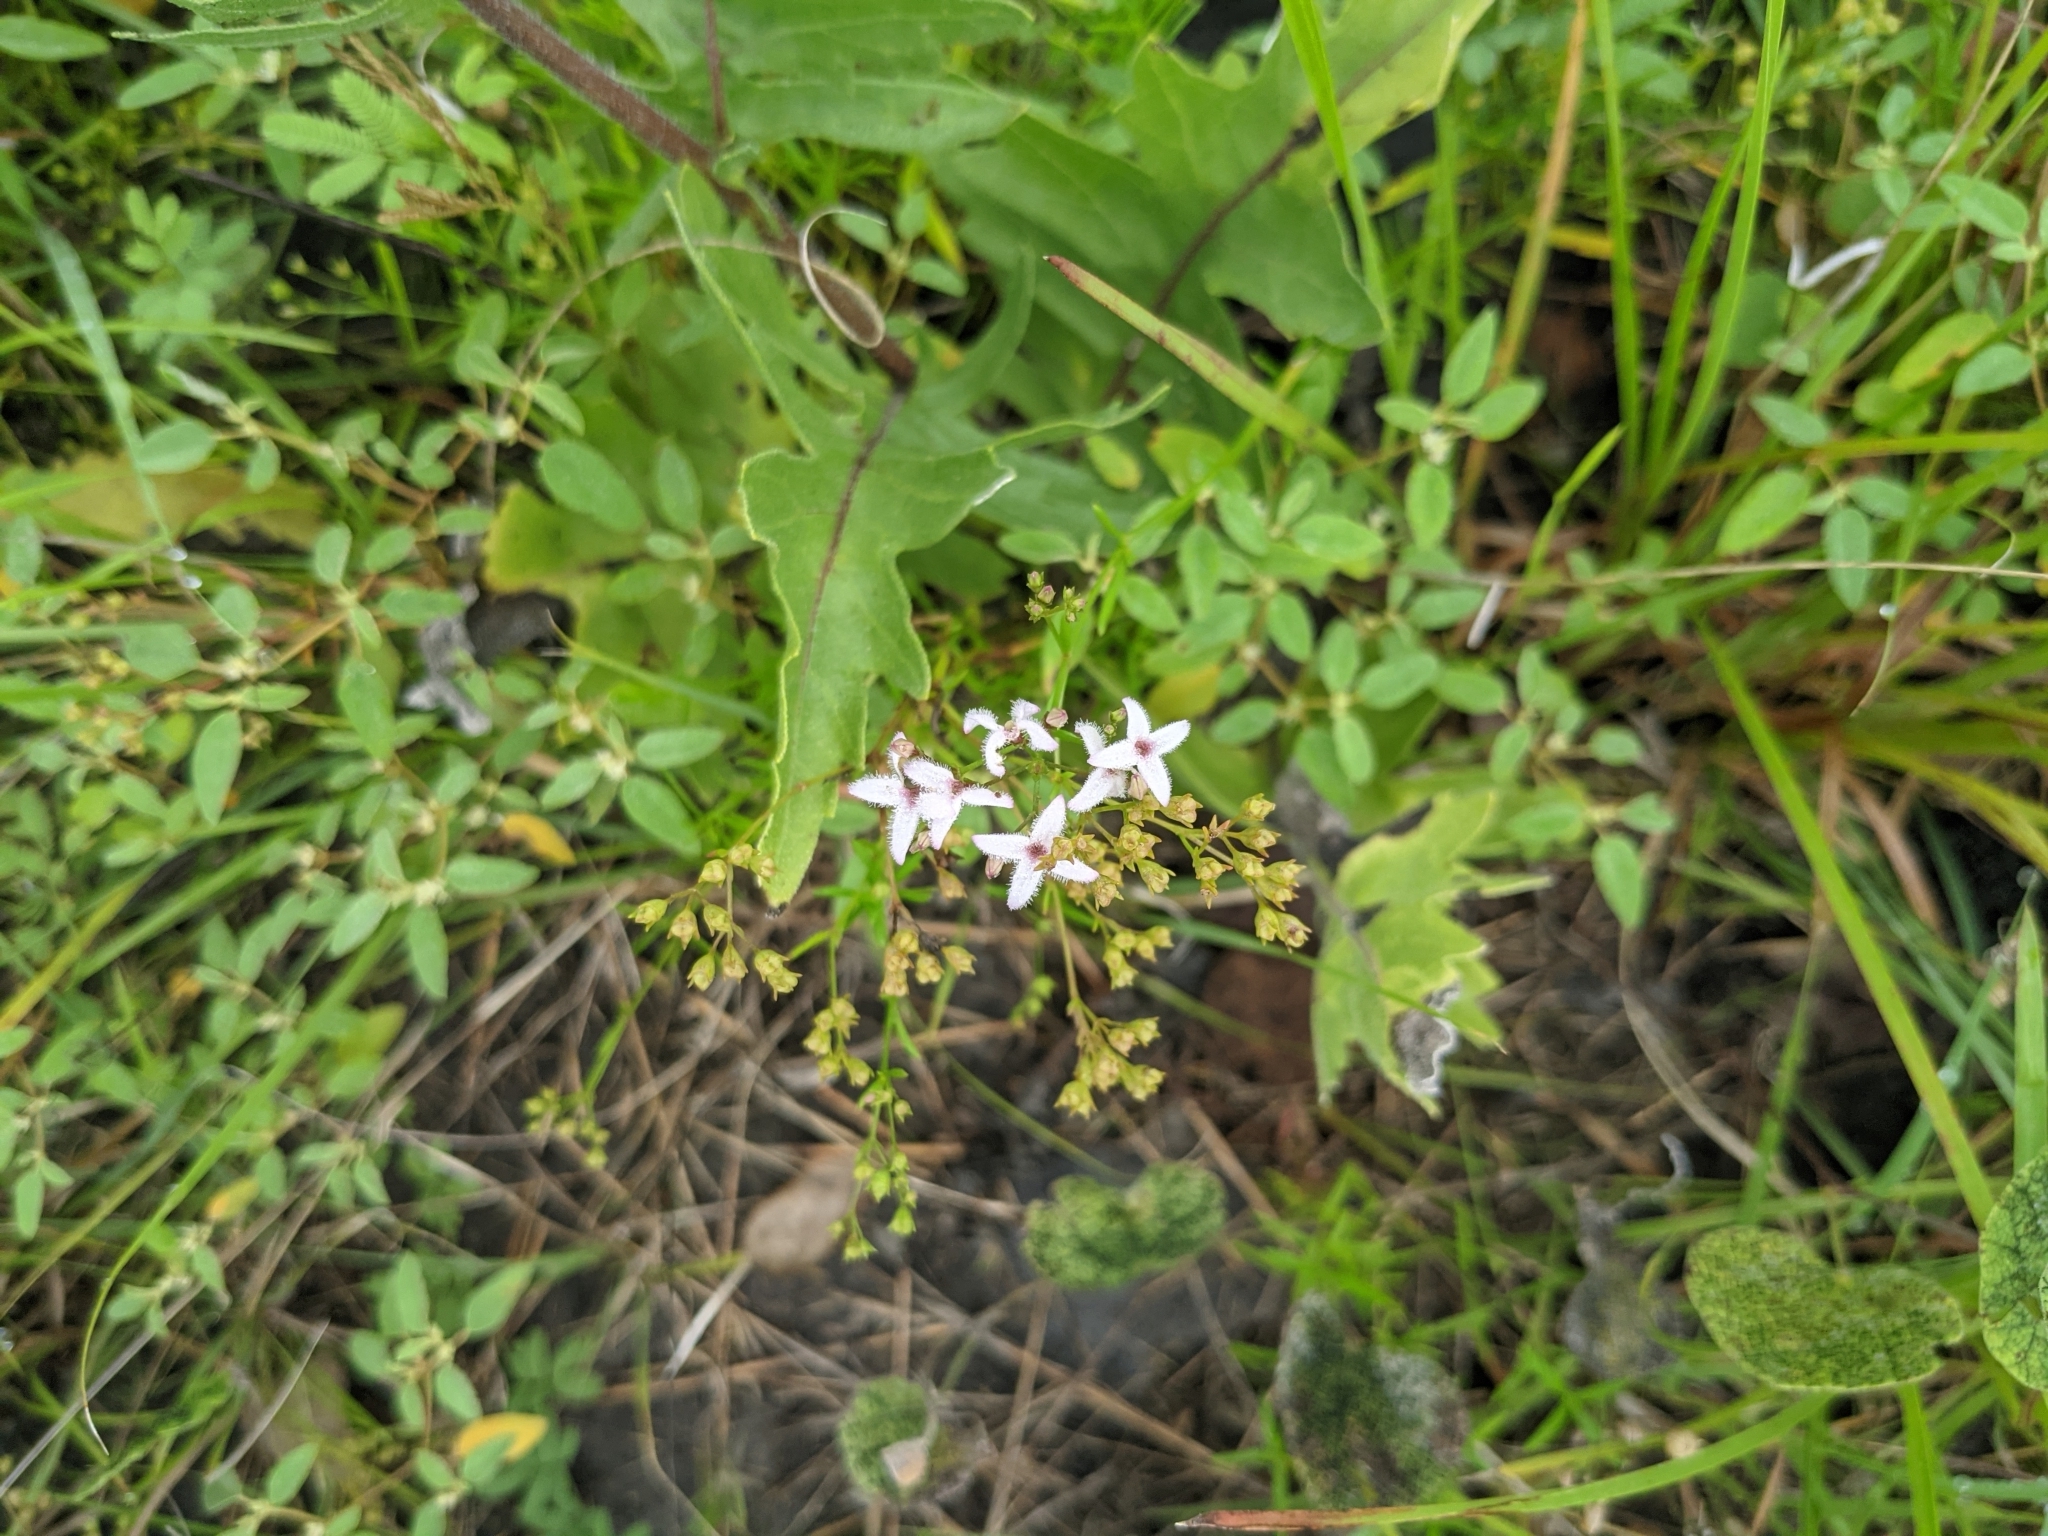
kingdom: Plantae
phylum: Tracheophyta
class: Magnoliopsida
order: Gentianales
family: Rubiaceae
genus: Stenaria
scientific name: Stenaria nigricans
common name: Diamondflowers
